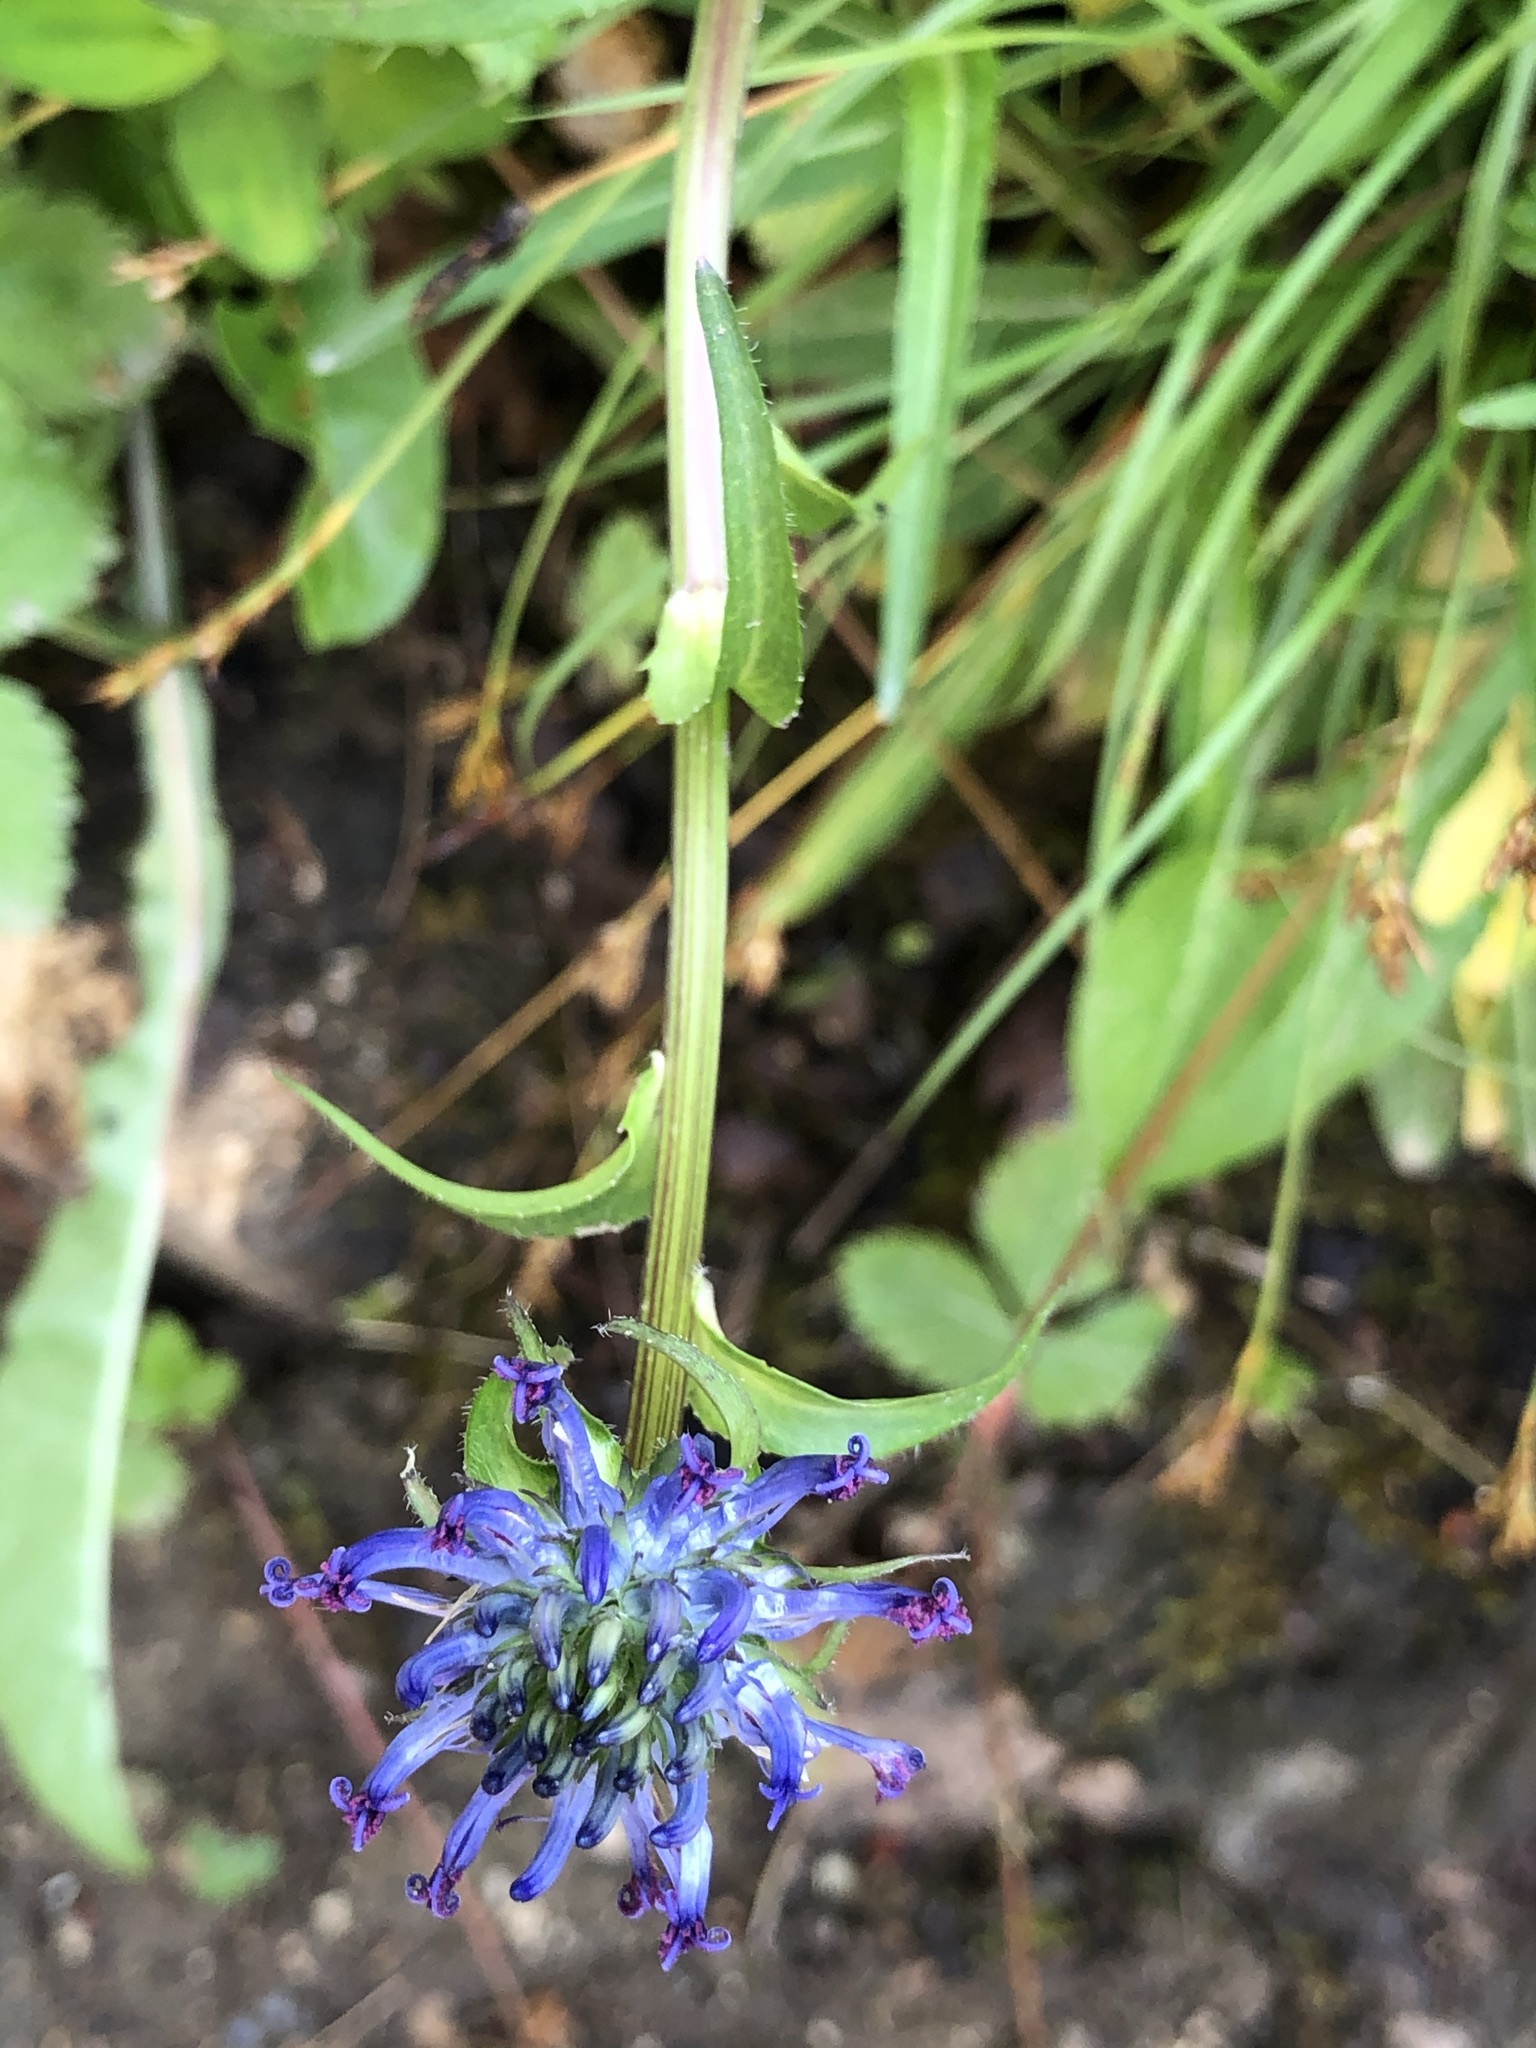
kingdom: Plantae
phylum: Tracheophyta
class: Magnoliopsida
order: Asterales
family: Campanulaceae
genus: Phyteuma
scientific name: Phyteuma orbiculare
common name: Round-headed rampion
